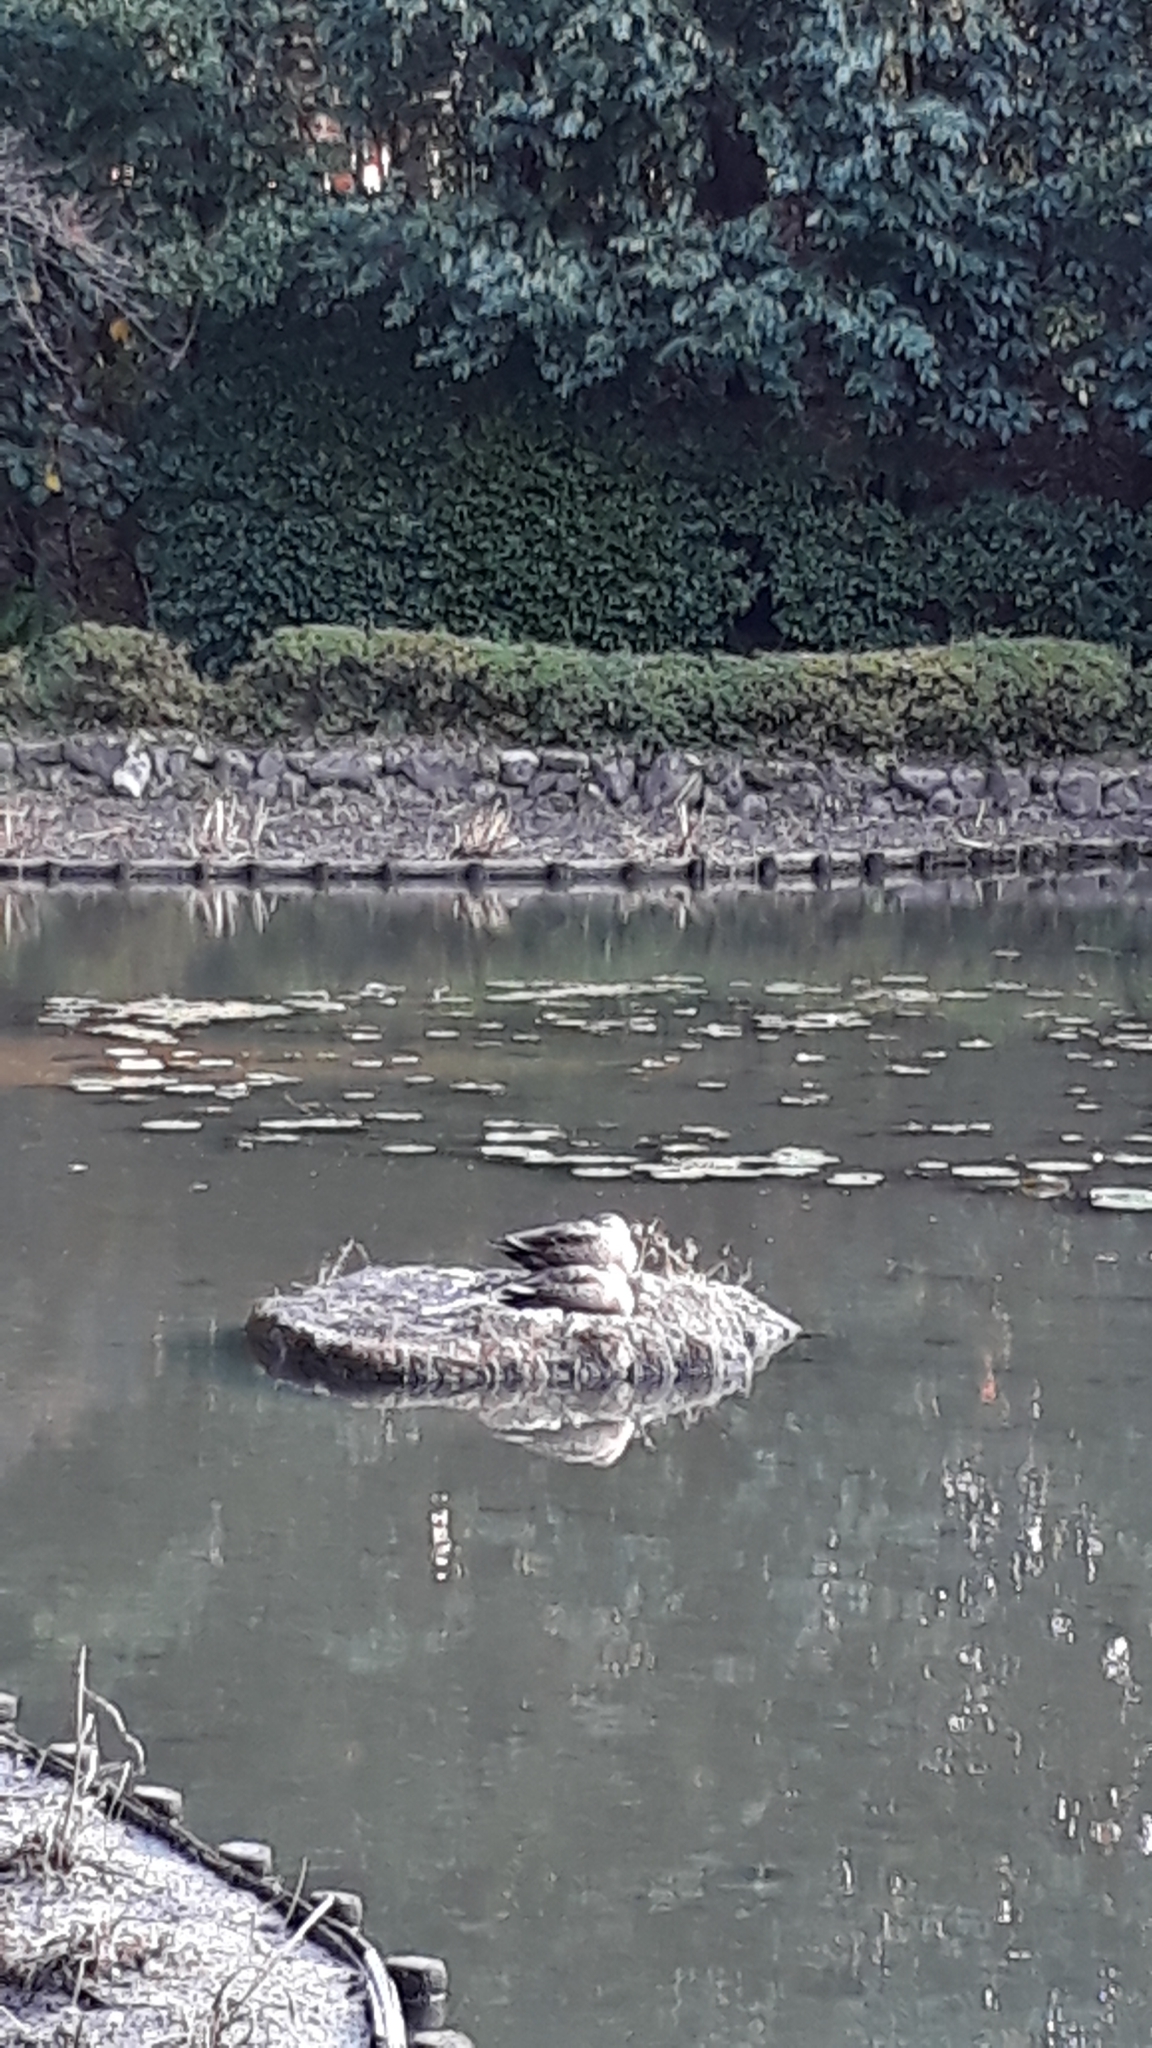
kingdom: Animalia
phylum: Chordata
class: Aves
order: Anseriformes
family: Anatidae
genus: Anas
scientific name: Anas zonorhyncha
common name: Eastern spot-billed duck
